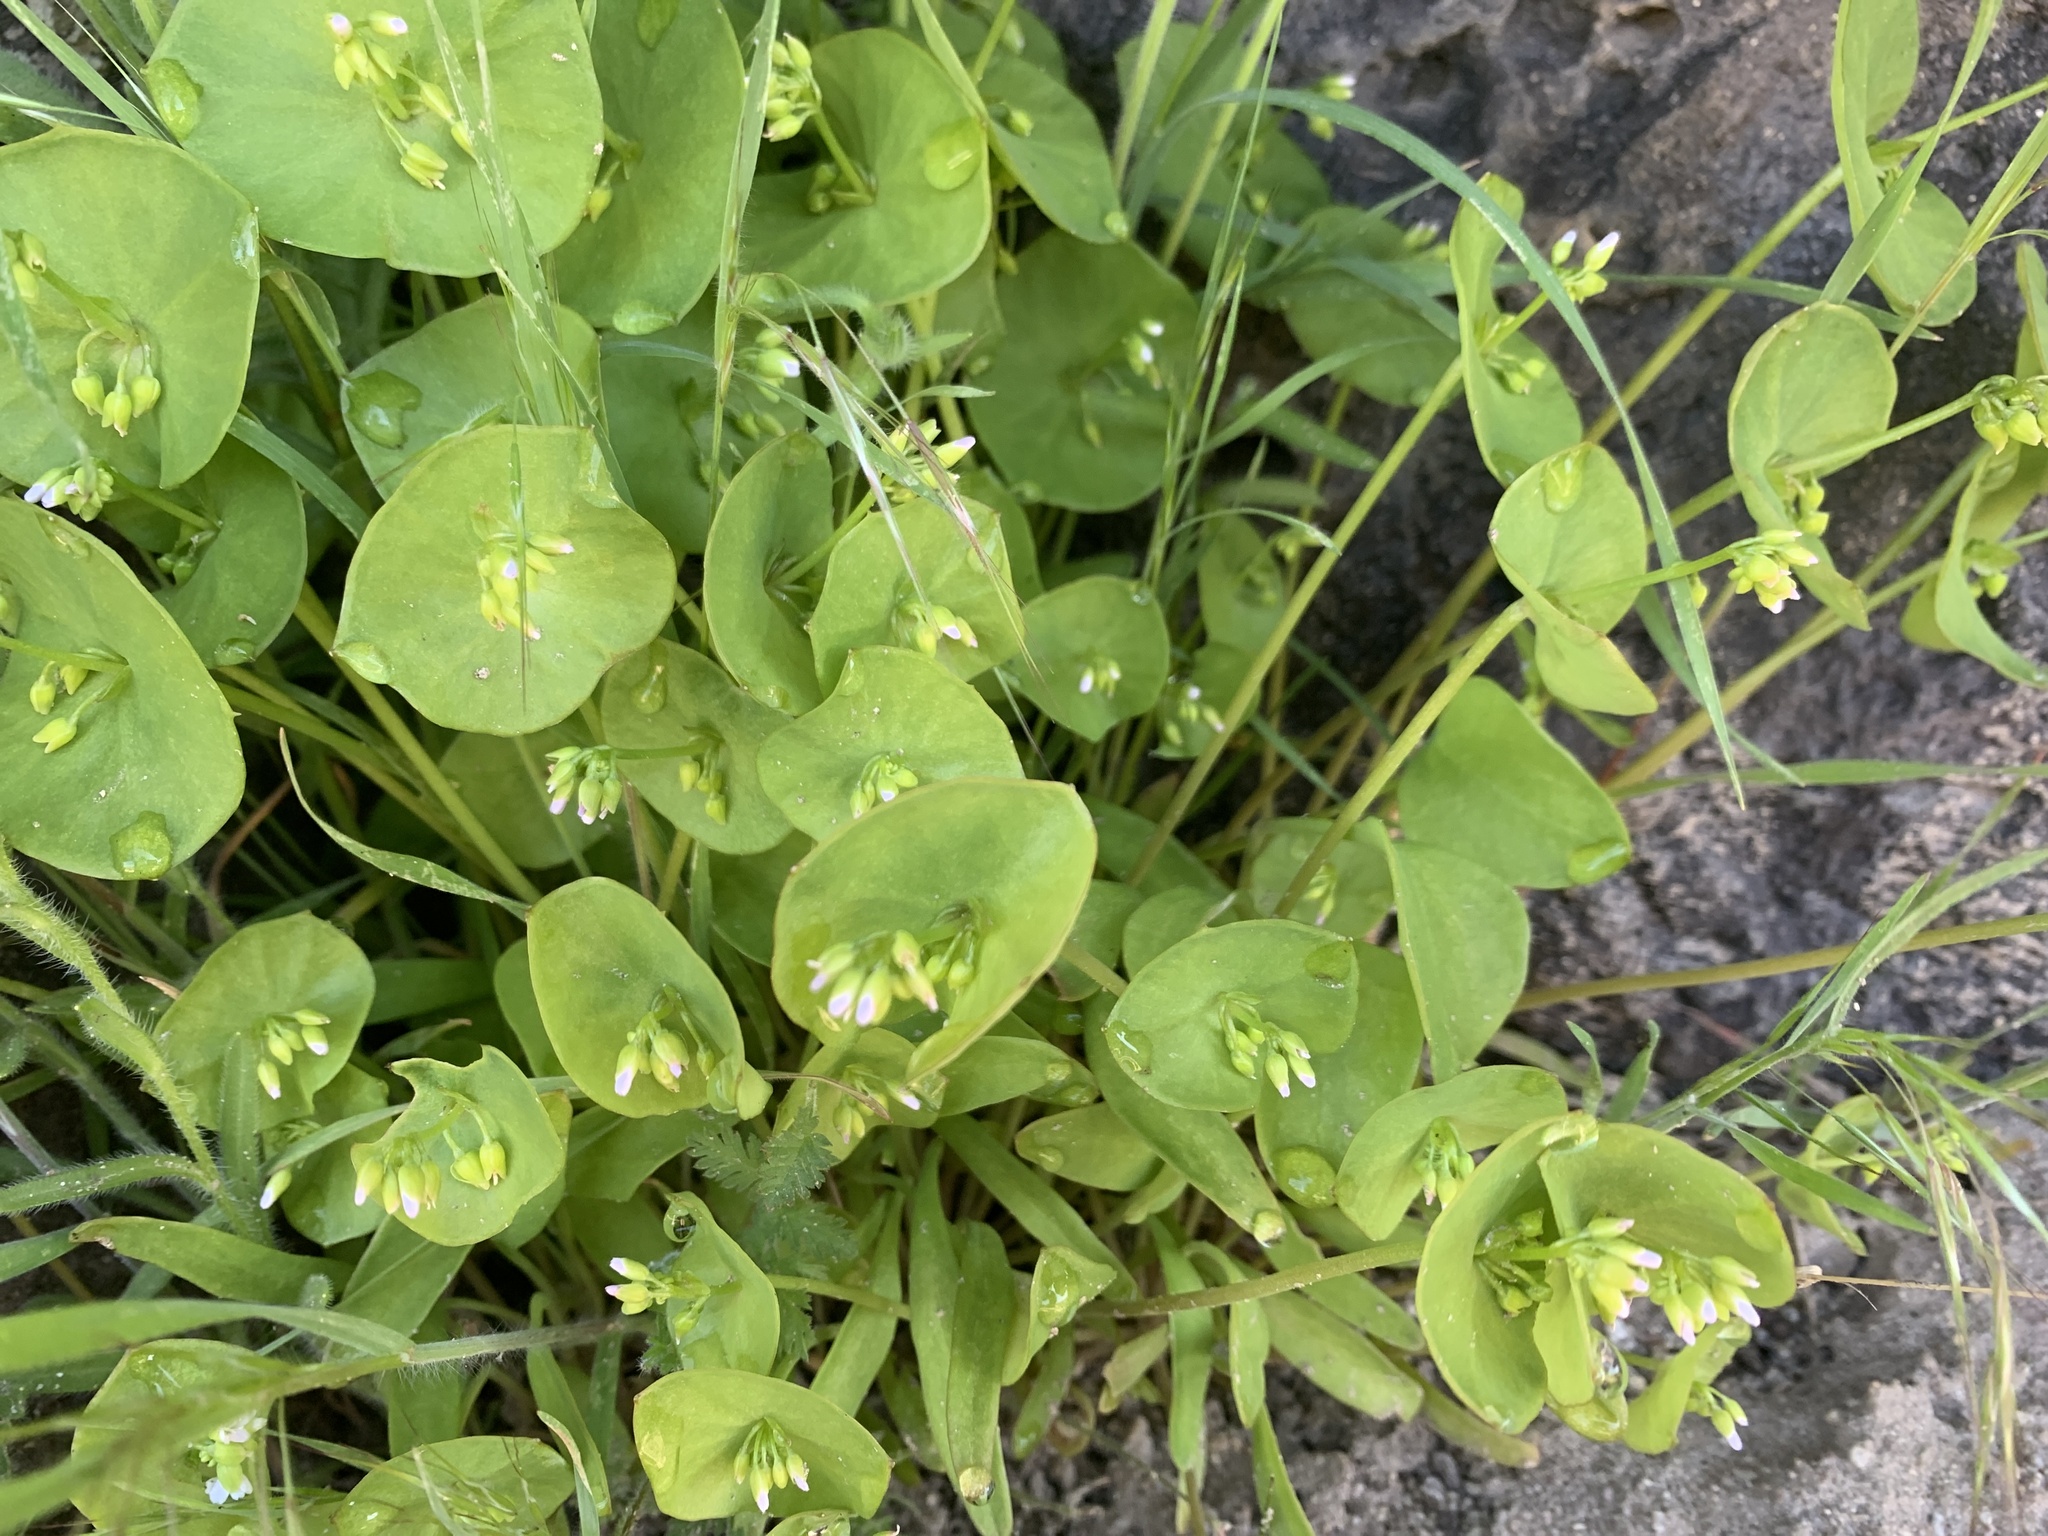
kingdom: Plantae
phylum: Tracheophyta
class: Magnoliopsida
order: Caryophyllales
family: Montiaceae
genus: Claytonia
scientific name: Claytonia perfoliata
